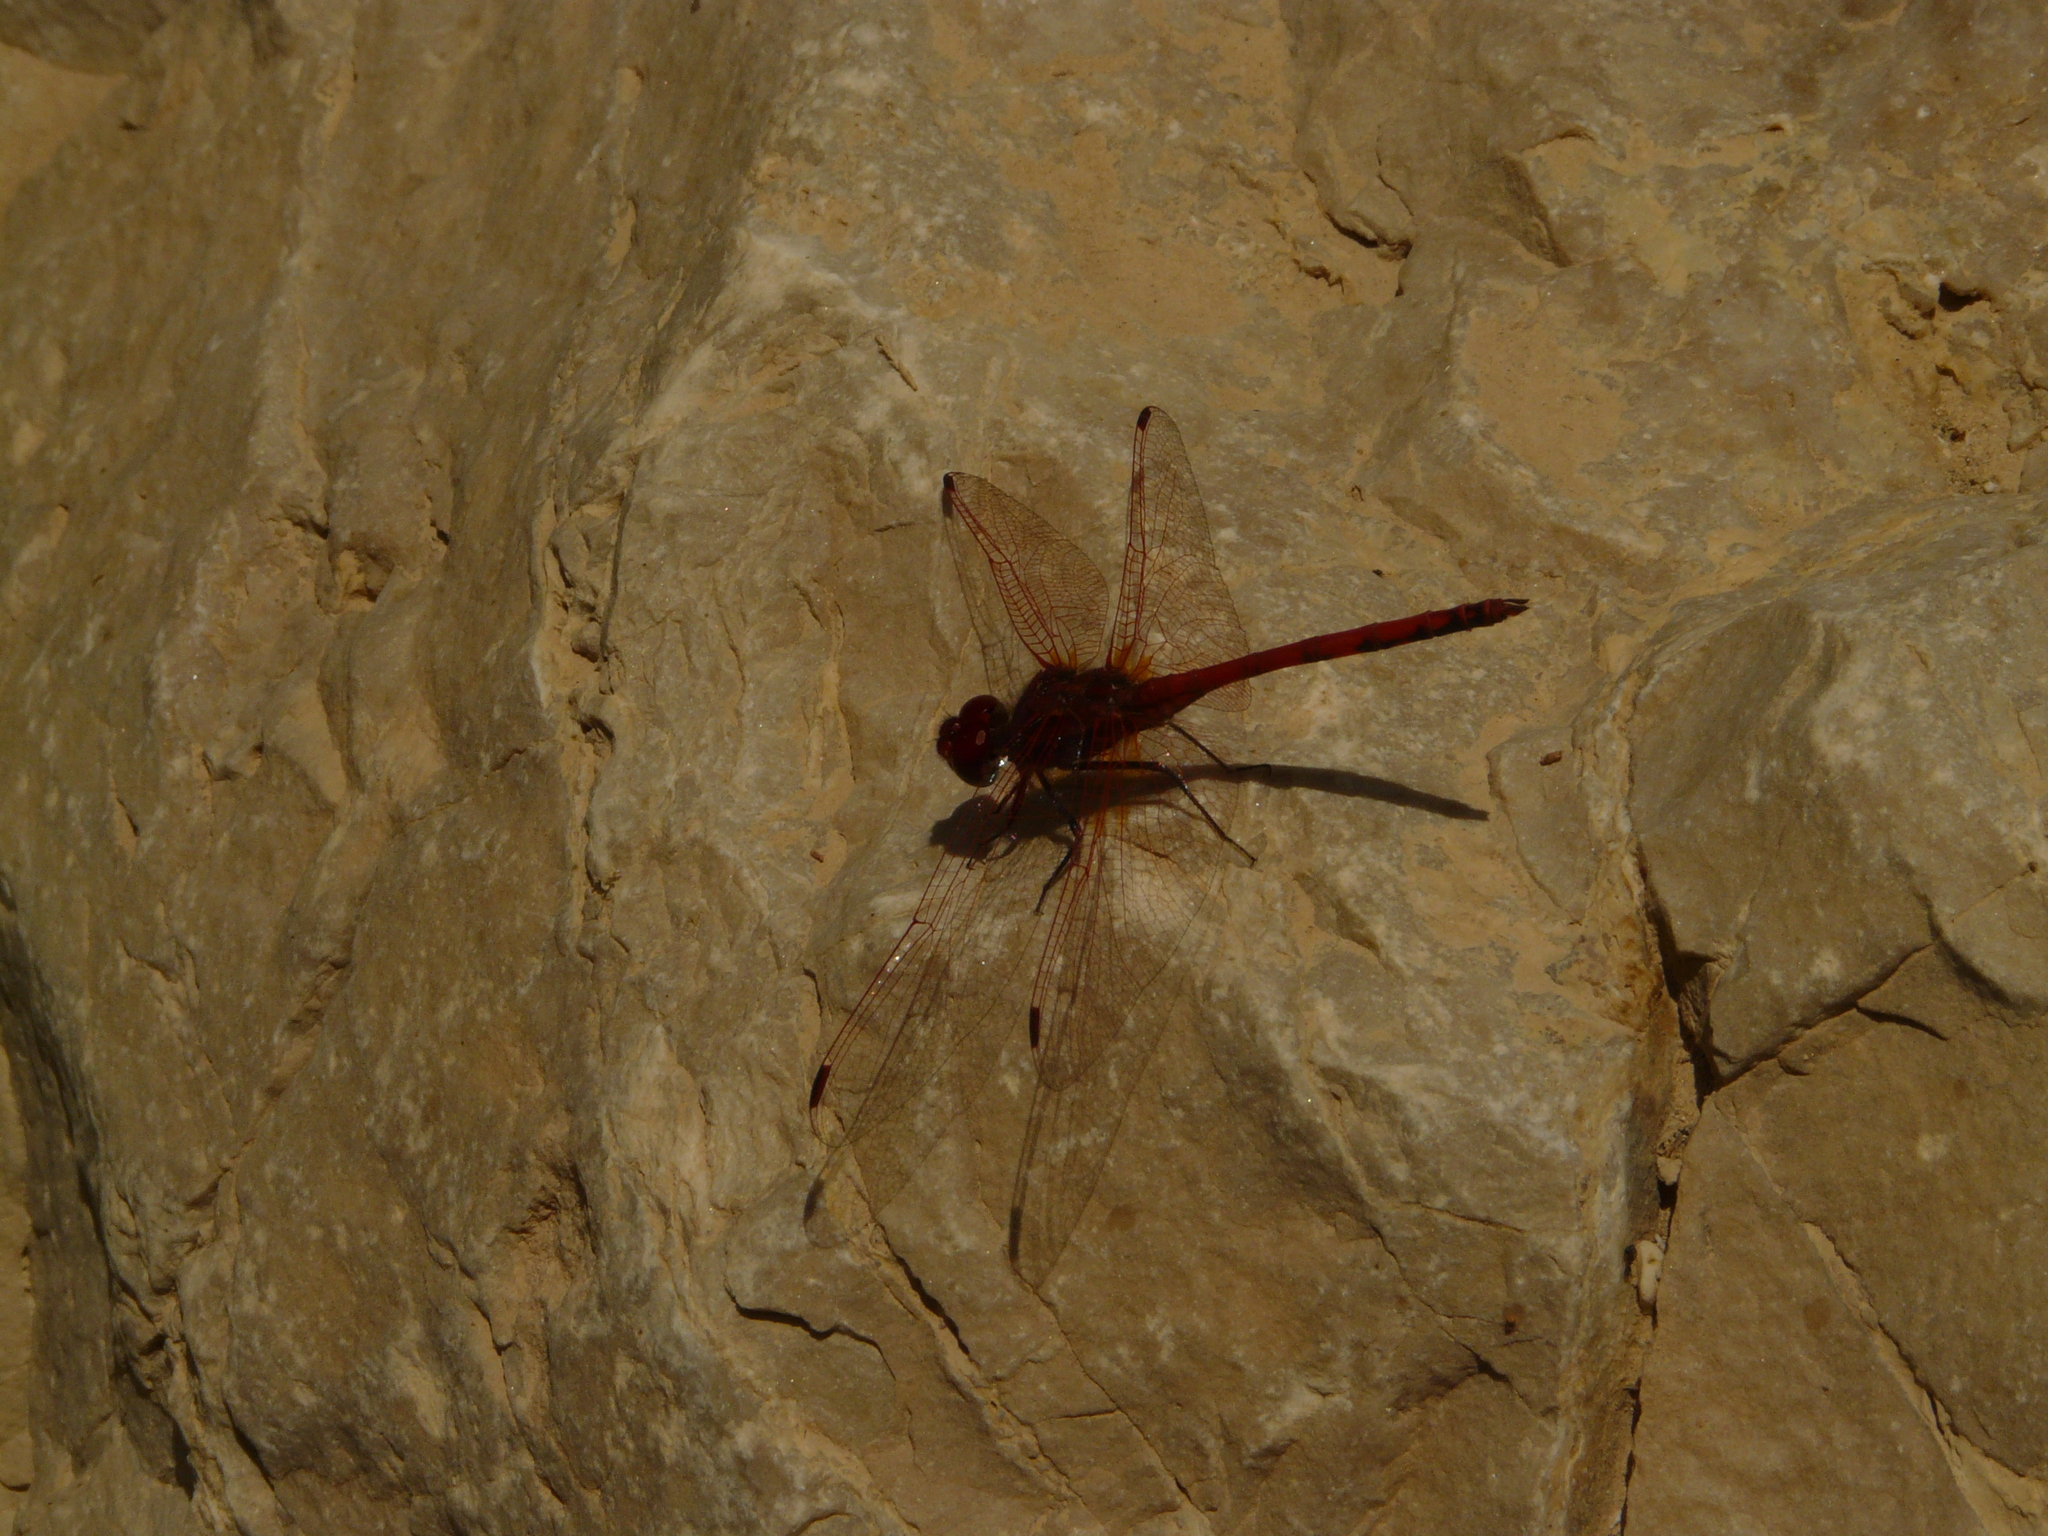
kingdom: Animalia
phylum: Arthropoda
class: Insecta
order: Odonata
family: Libellulidae
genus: Trithemis
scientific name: Trithemis arteriosa
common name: Red-veined dropwing
